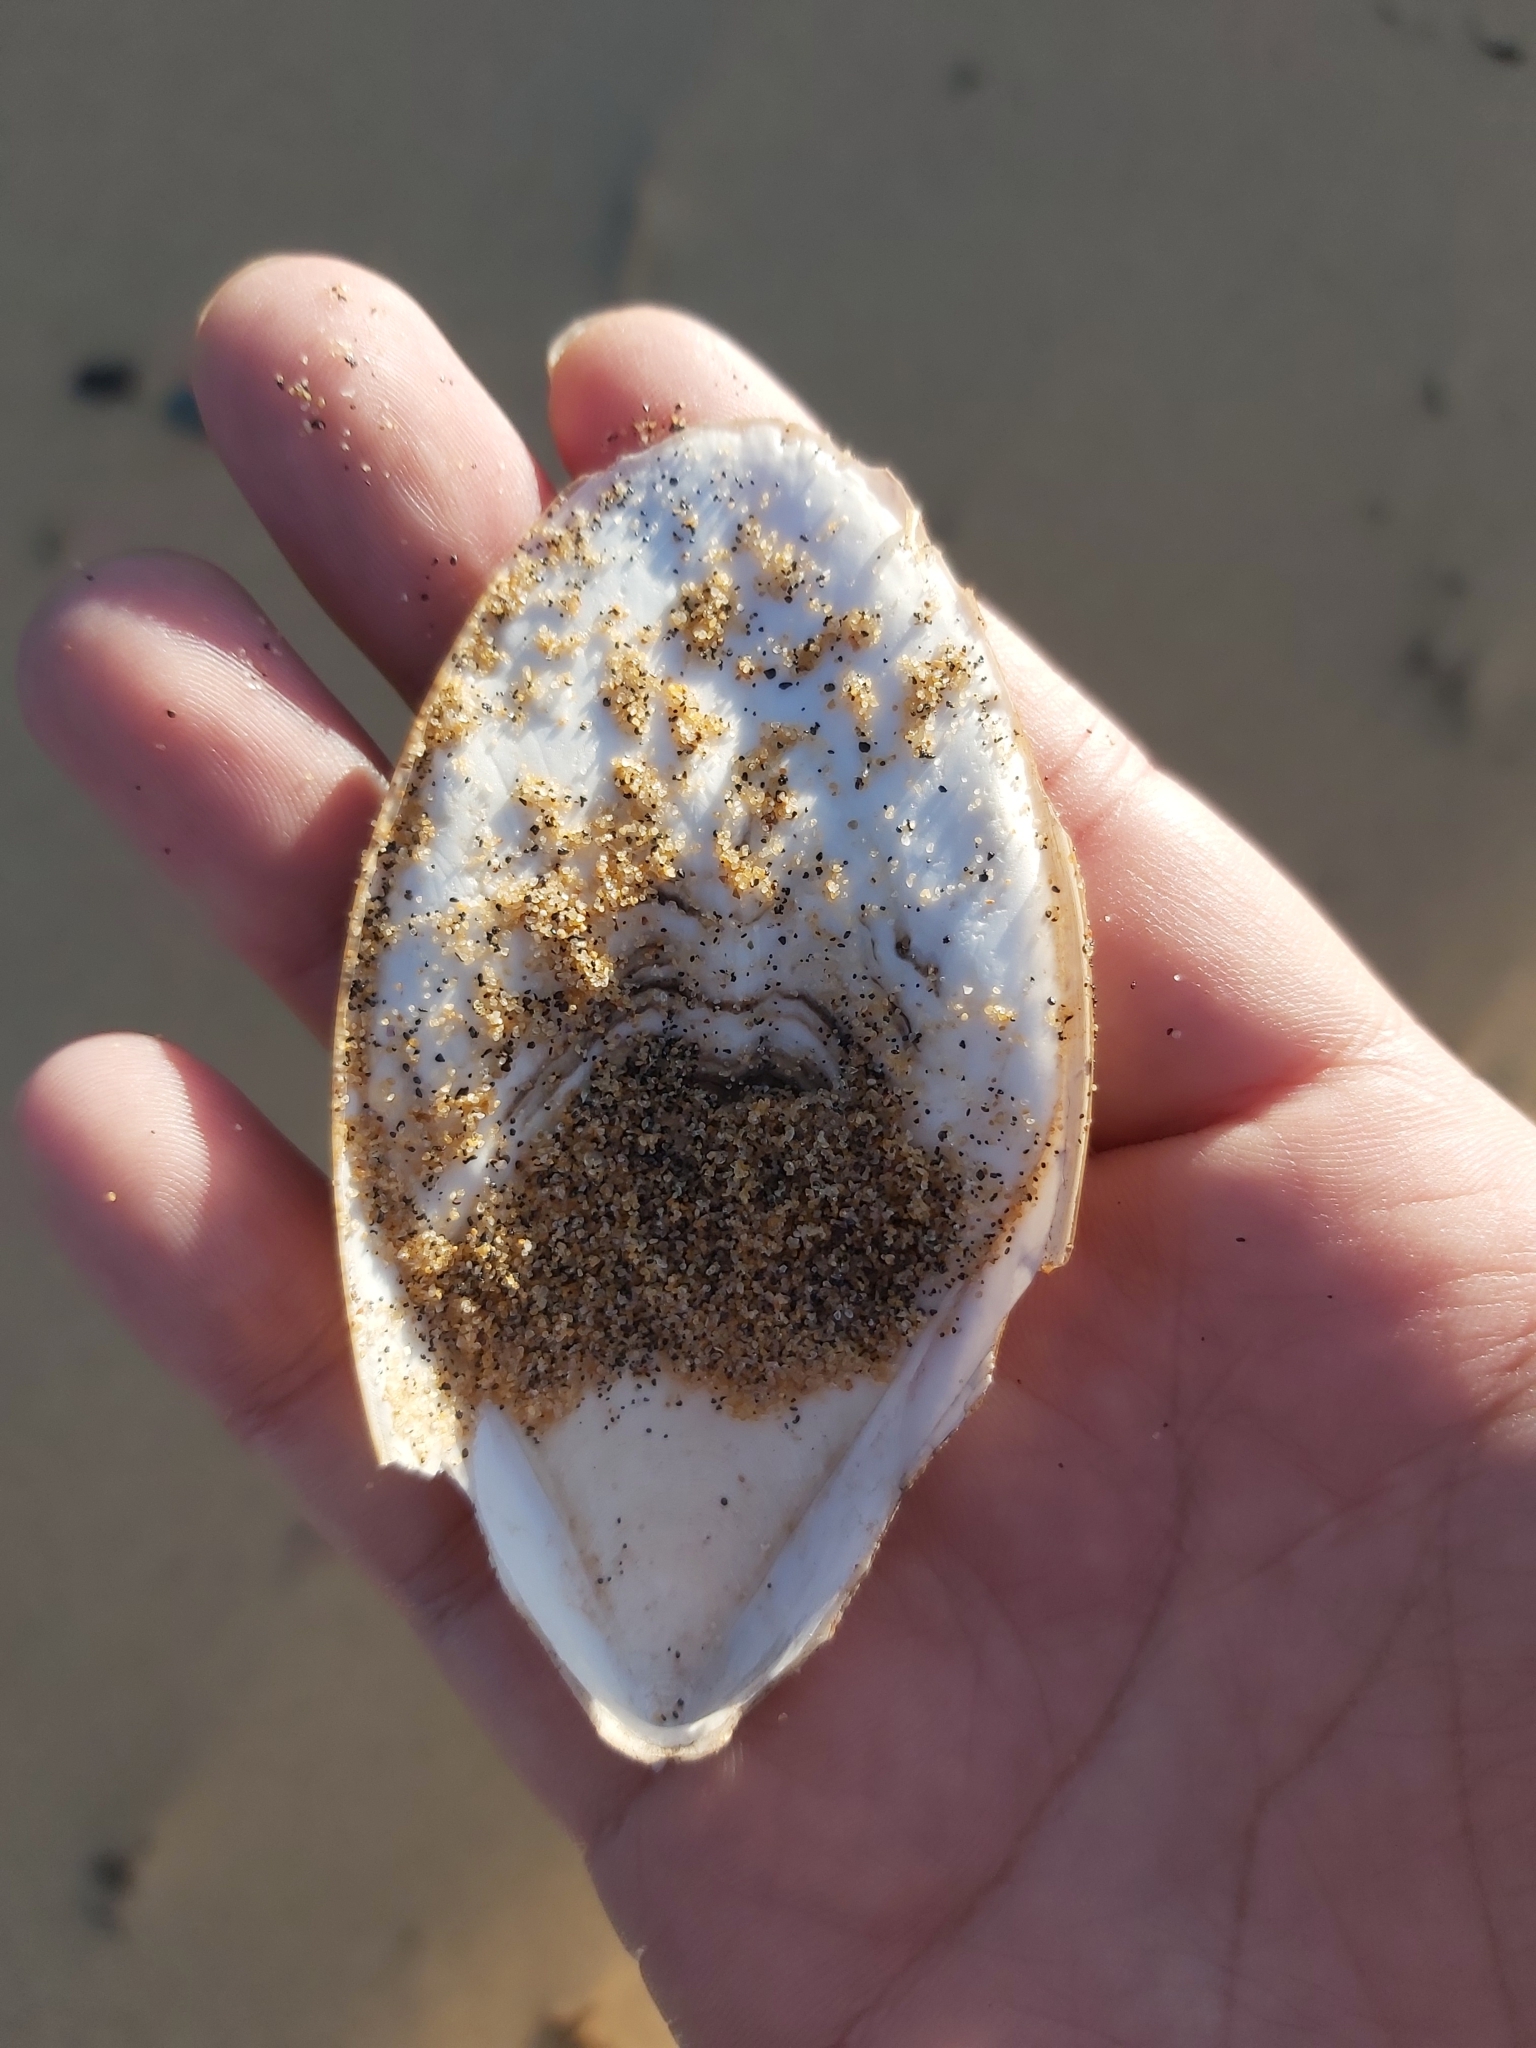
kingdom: Animalia
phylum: Mollusca
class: Cephalopoda
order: Sepiida
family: Sepiidae
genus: Ascarosepion
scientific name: Ascarosepion mestus
